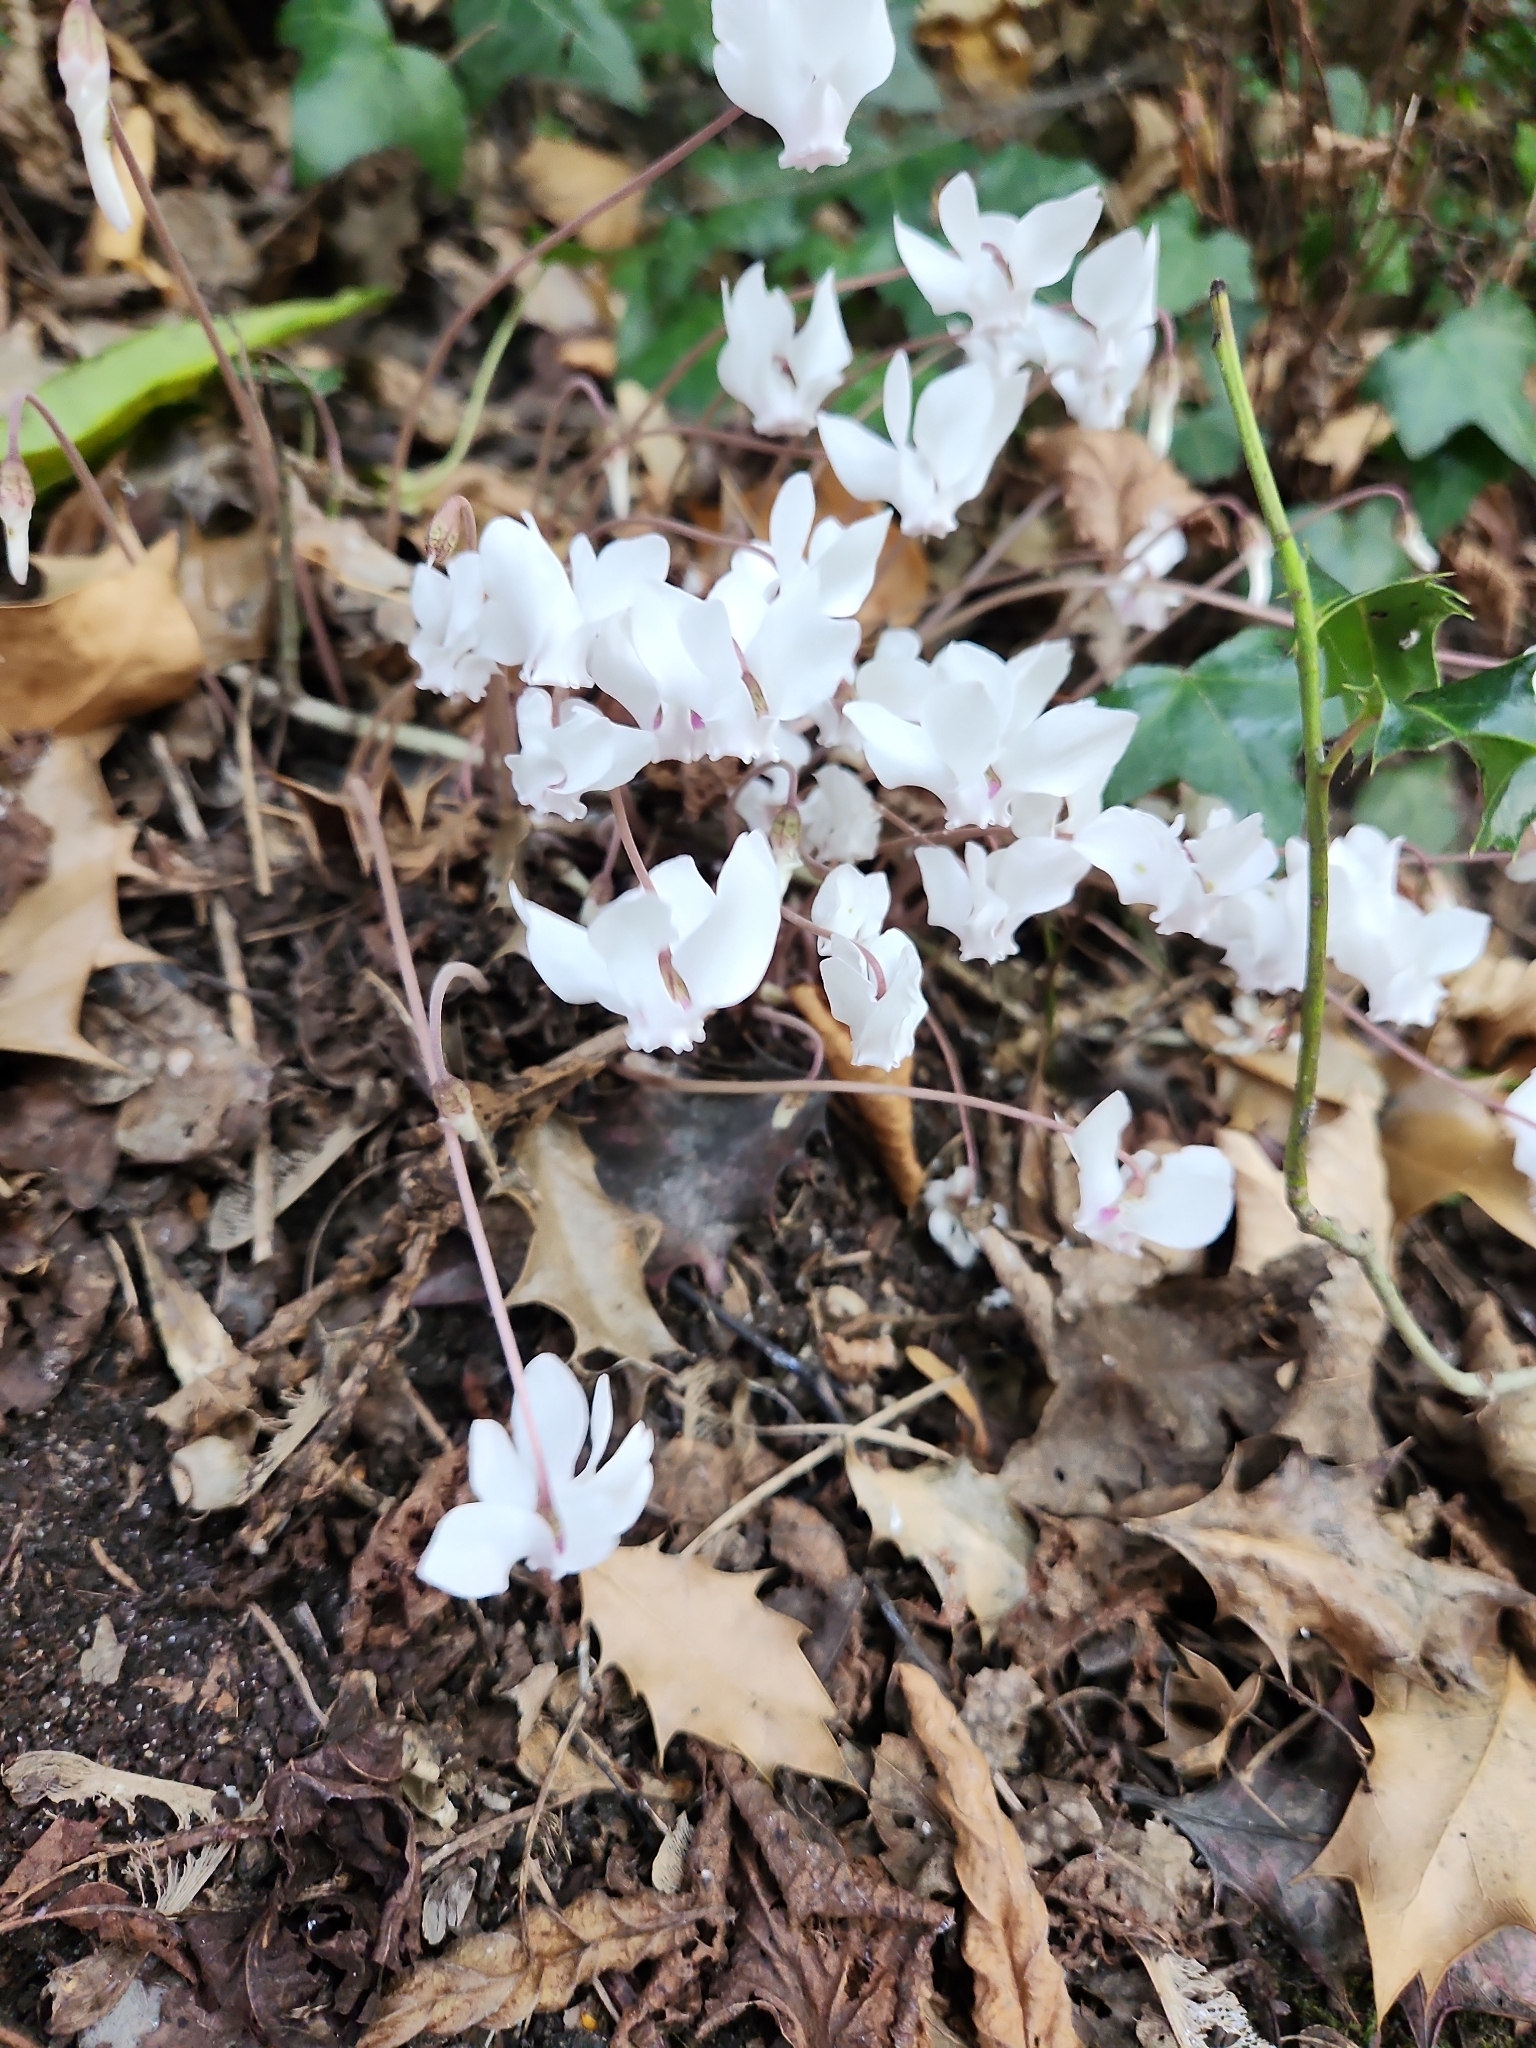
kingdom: Plantae
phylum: Tracheophyta
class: Magnoliopsida
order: Ericales
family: Primulaceae
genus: Cyclamen
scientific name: Cyclamen hederifolium
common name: Sowbread
